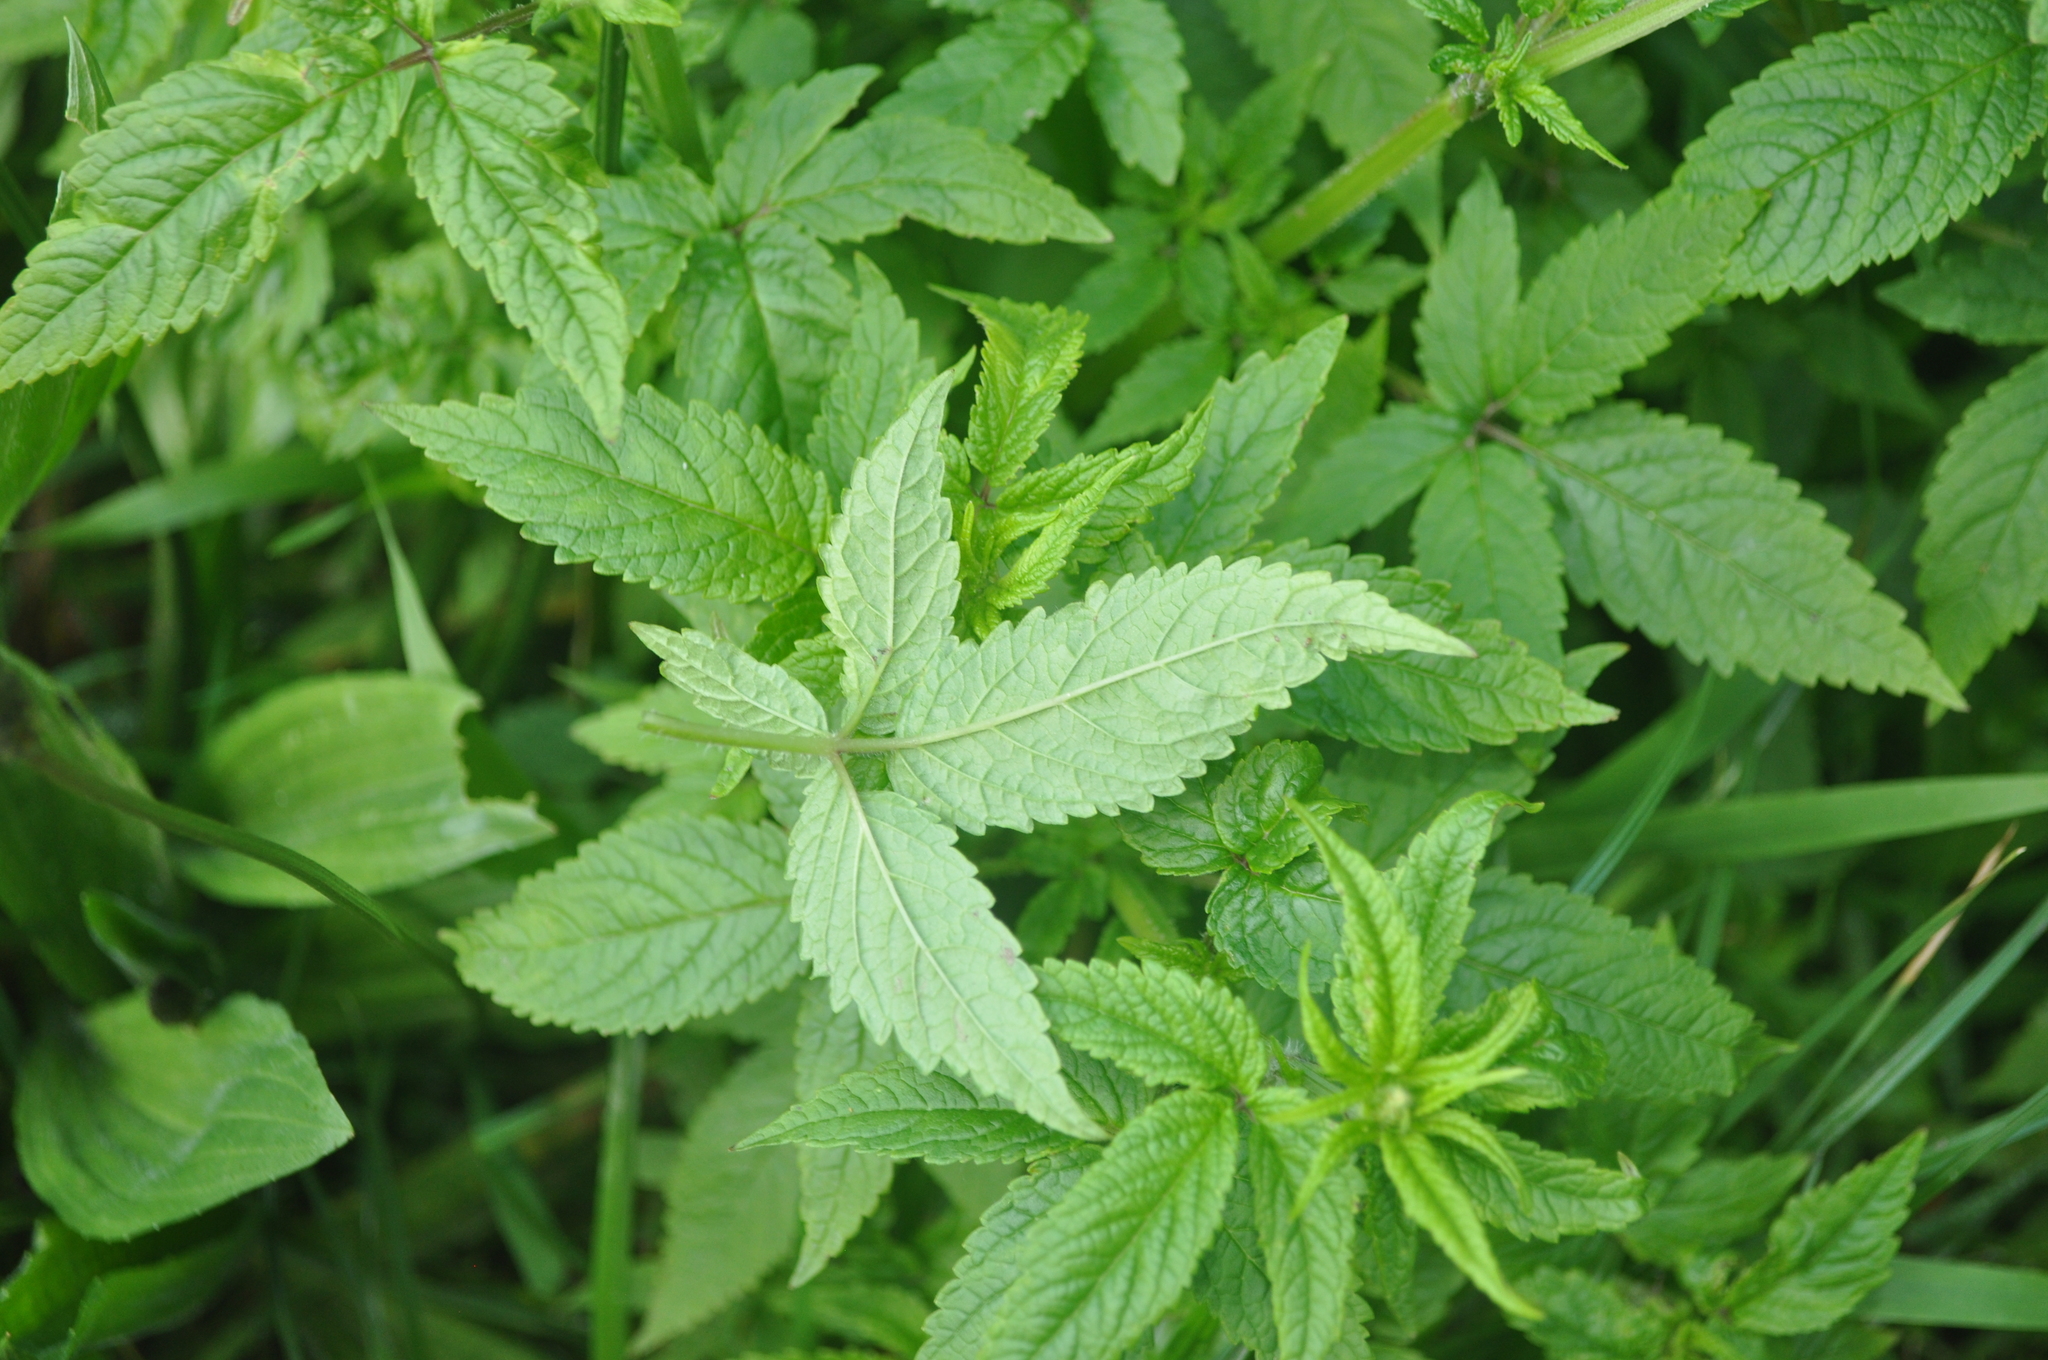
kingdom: Plantae
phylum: Tracheophyta
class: Magnoliopsida
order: Lamiales
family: Lamiaceae
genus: Cedronella
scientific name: Cedronella canariensis
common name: Canary islands balm
